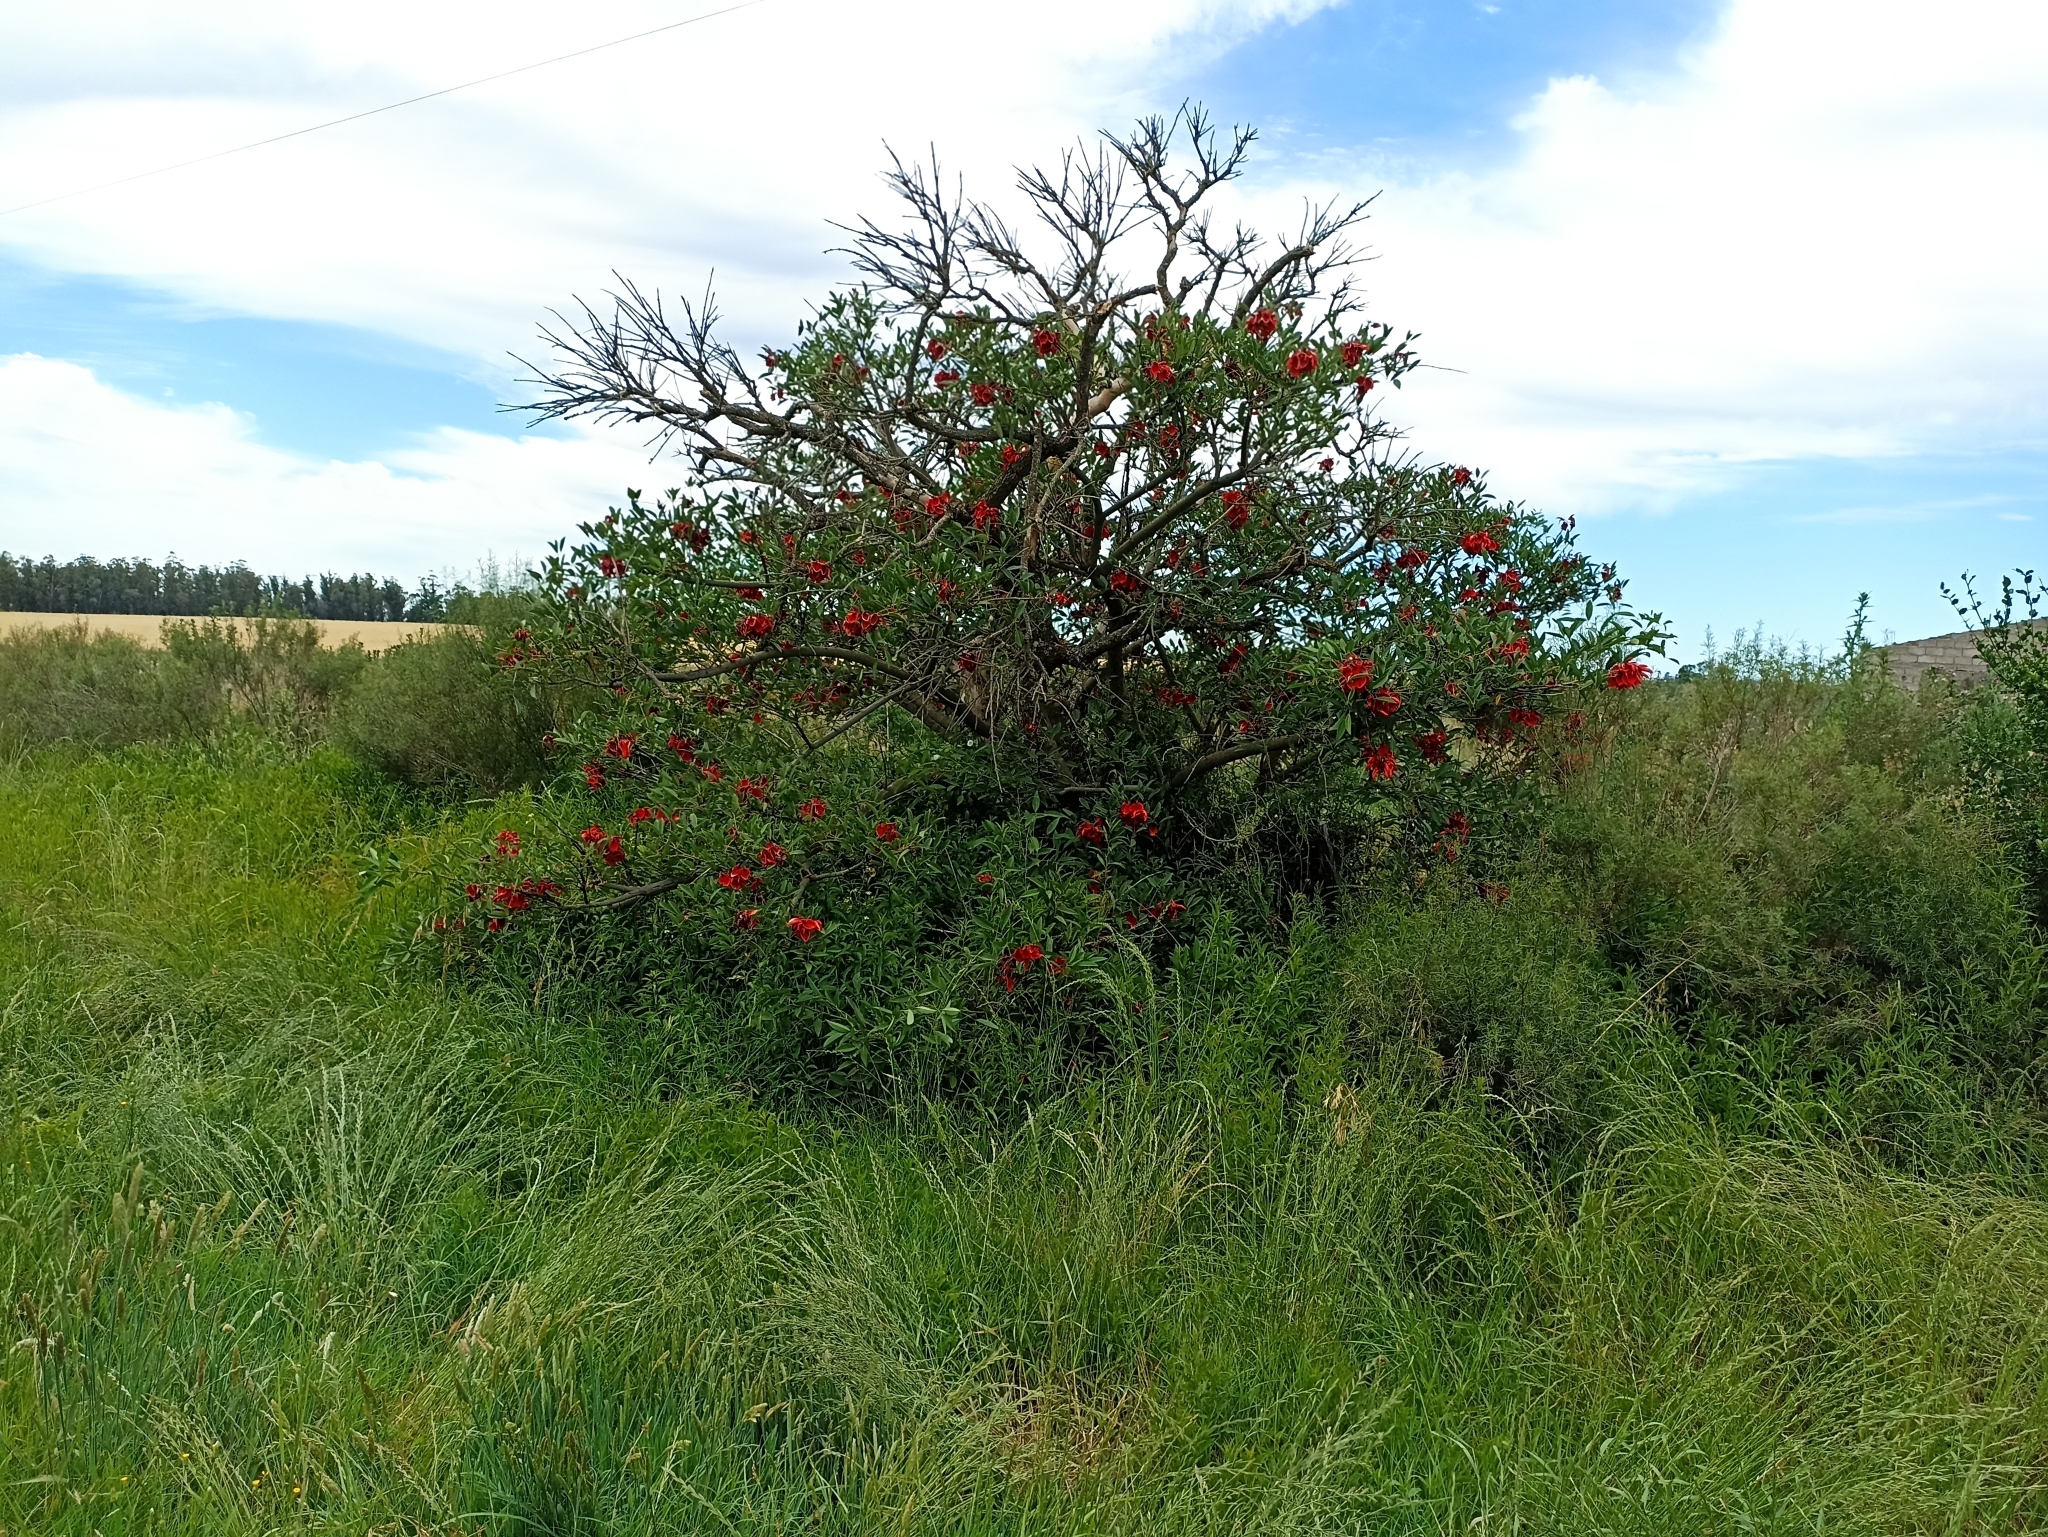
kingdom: Plantae
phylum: Tracheophyta
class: Magnoliopsida
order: Fabales
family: Fabaceae
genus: Erythrina
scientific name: Erythrina crista-galli
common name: Cockspur coral tree
